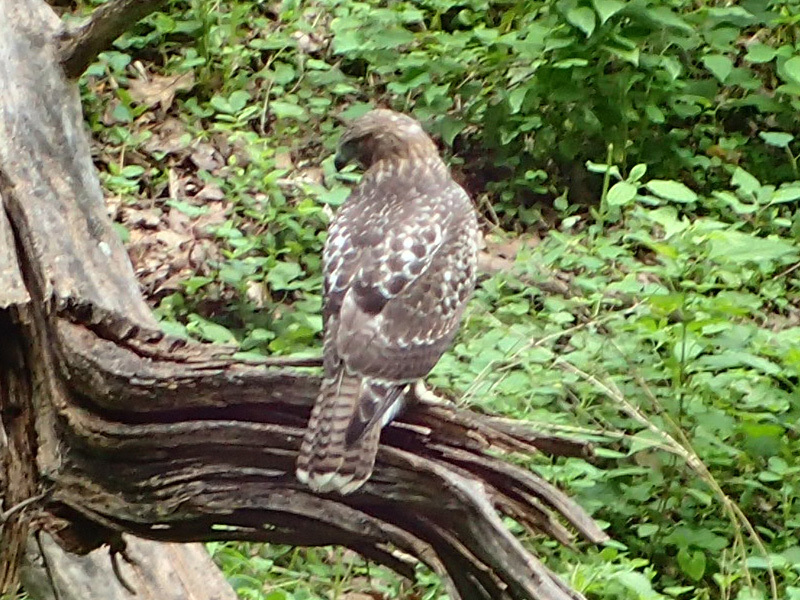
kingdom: Animalia
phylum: Chordata
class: Aves
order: Accipitriformes
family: Accipitridae
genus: Buteo
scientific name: Buteo jamaicensis
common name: Red-tailed hawk
